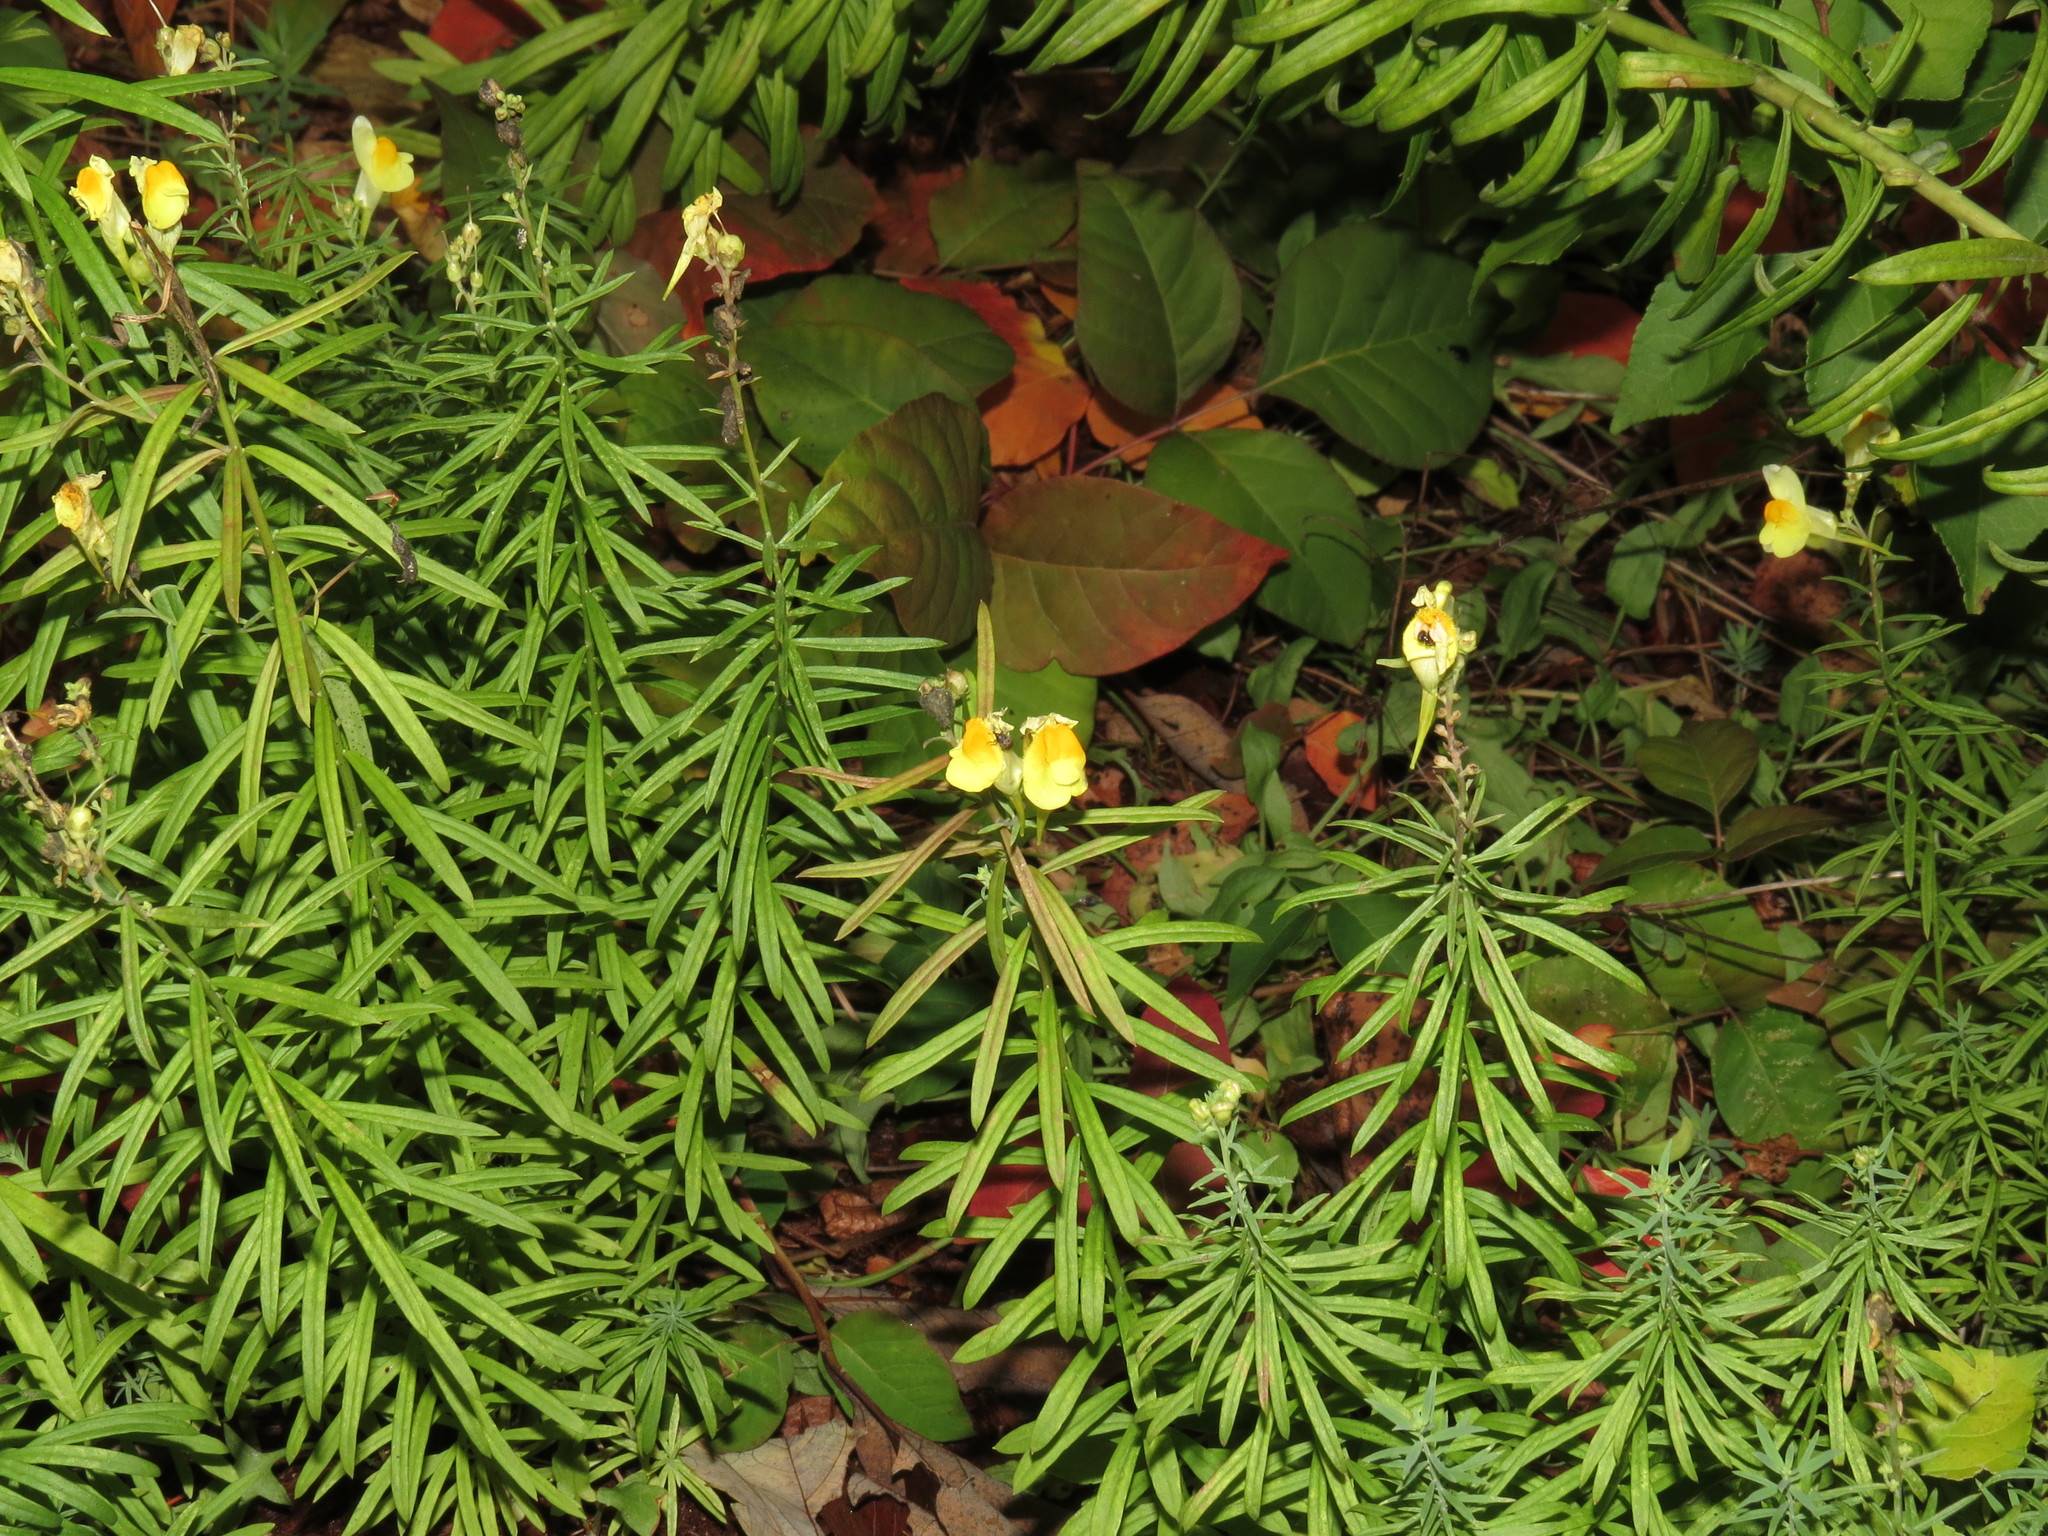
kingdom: Plantae
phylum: Tracheophyta
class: Magnoliopsida
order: Lamiales
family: Plantaginaceae
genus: Linaria
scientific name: Linaria vulgaris
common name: Butter and eggs
